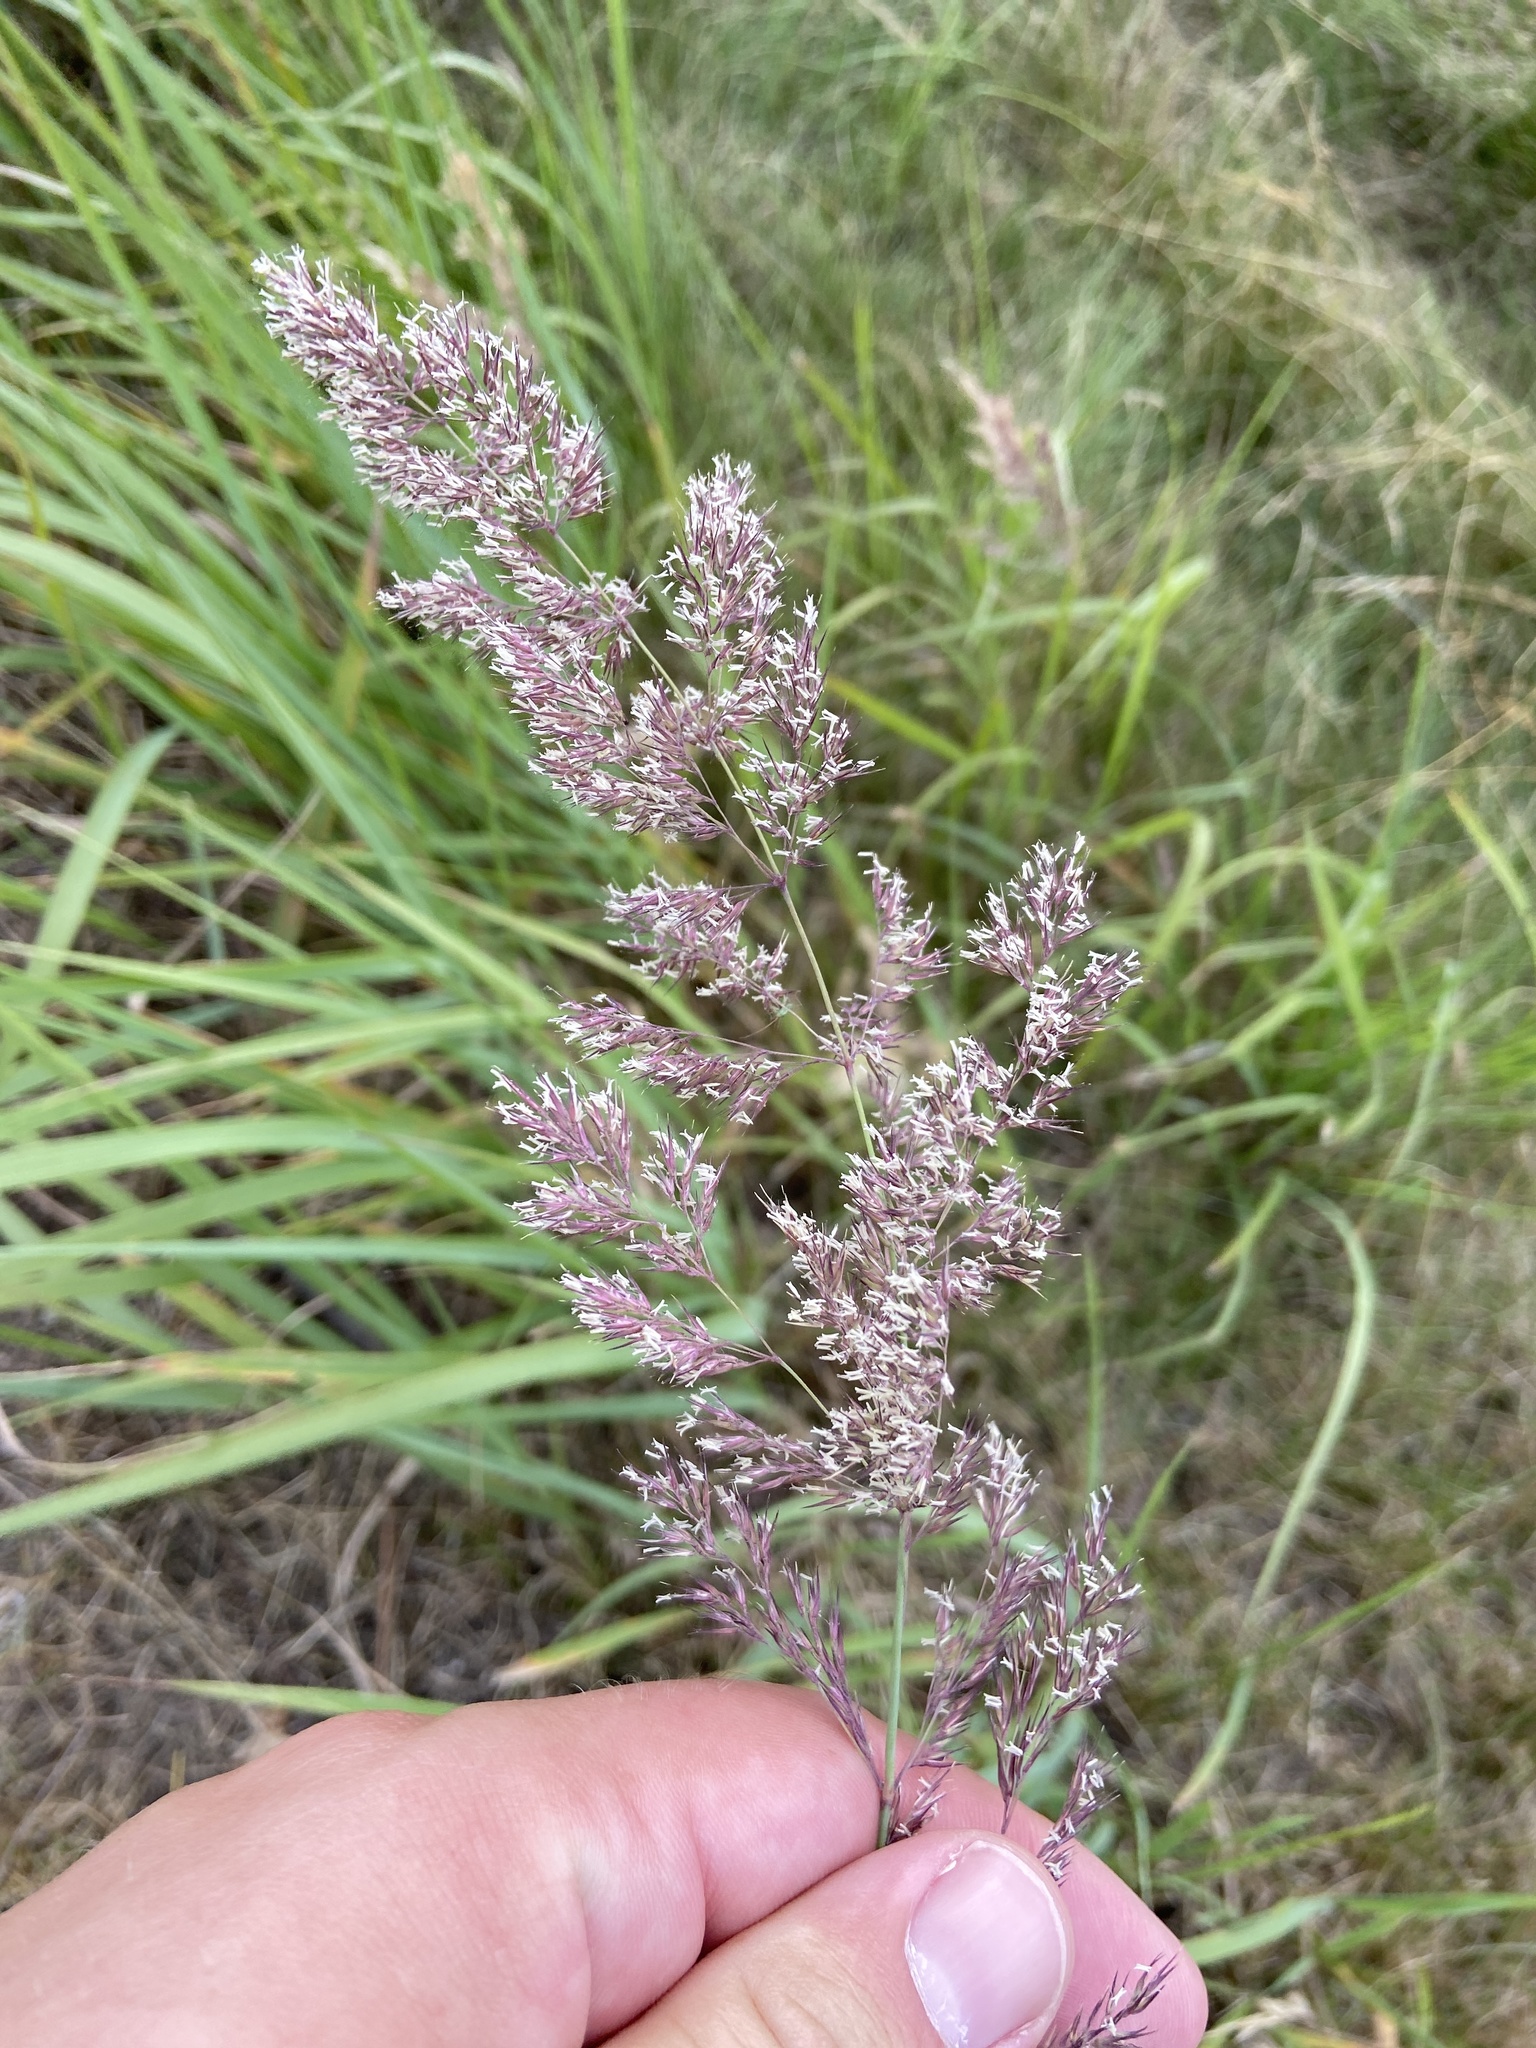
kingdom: Plantae
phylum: Tracheophyta
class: Liliopsida
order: Poales
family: Poaceae
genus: Calamagrostis
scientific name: Calamagrostis epigejos
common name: Wood small-reed
